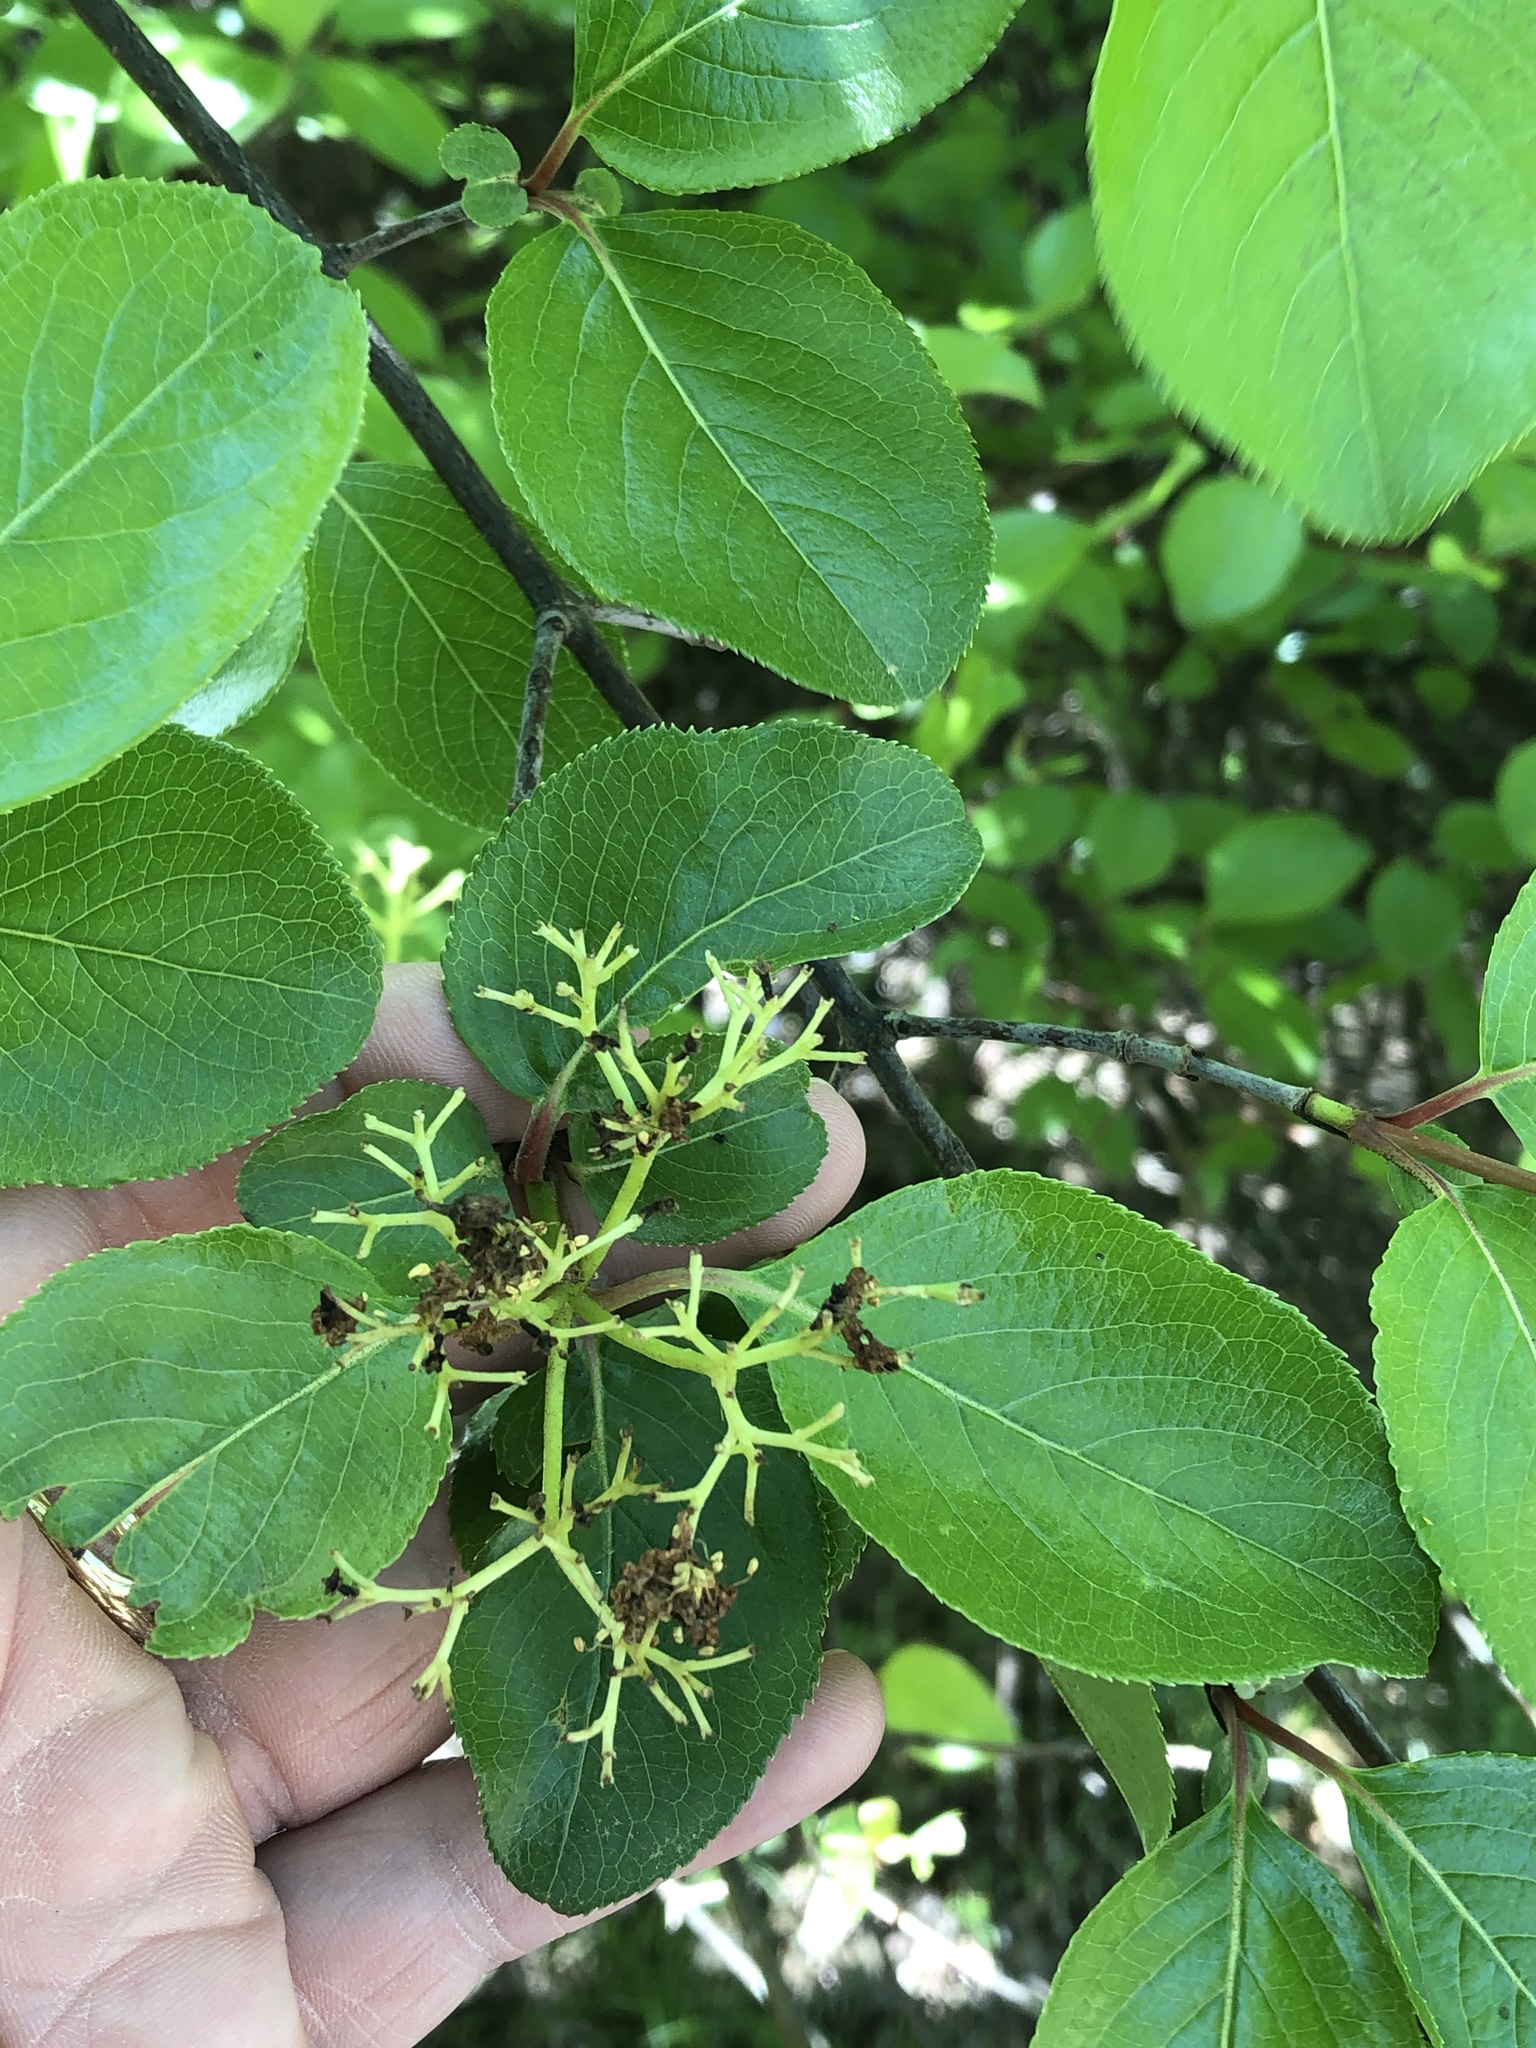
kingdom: Plantae
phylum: Tracheophyta
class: Magnoliopsida
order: Dipsacales
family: Viburnaceae
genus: Viburnum
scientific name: Viburnum rufidulum
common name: Blue haw
